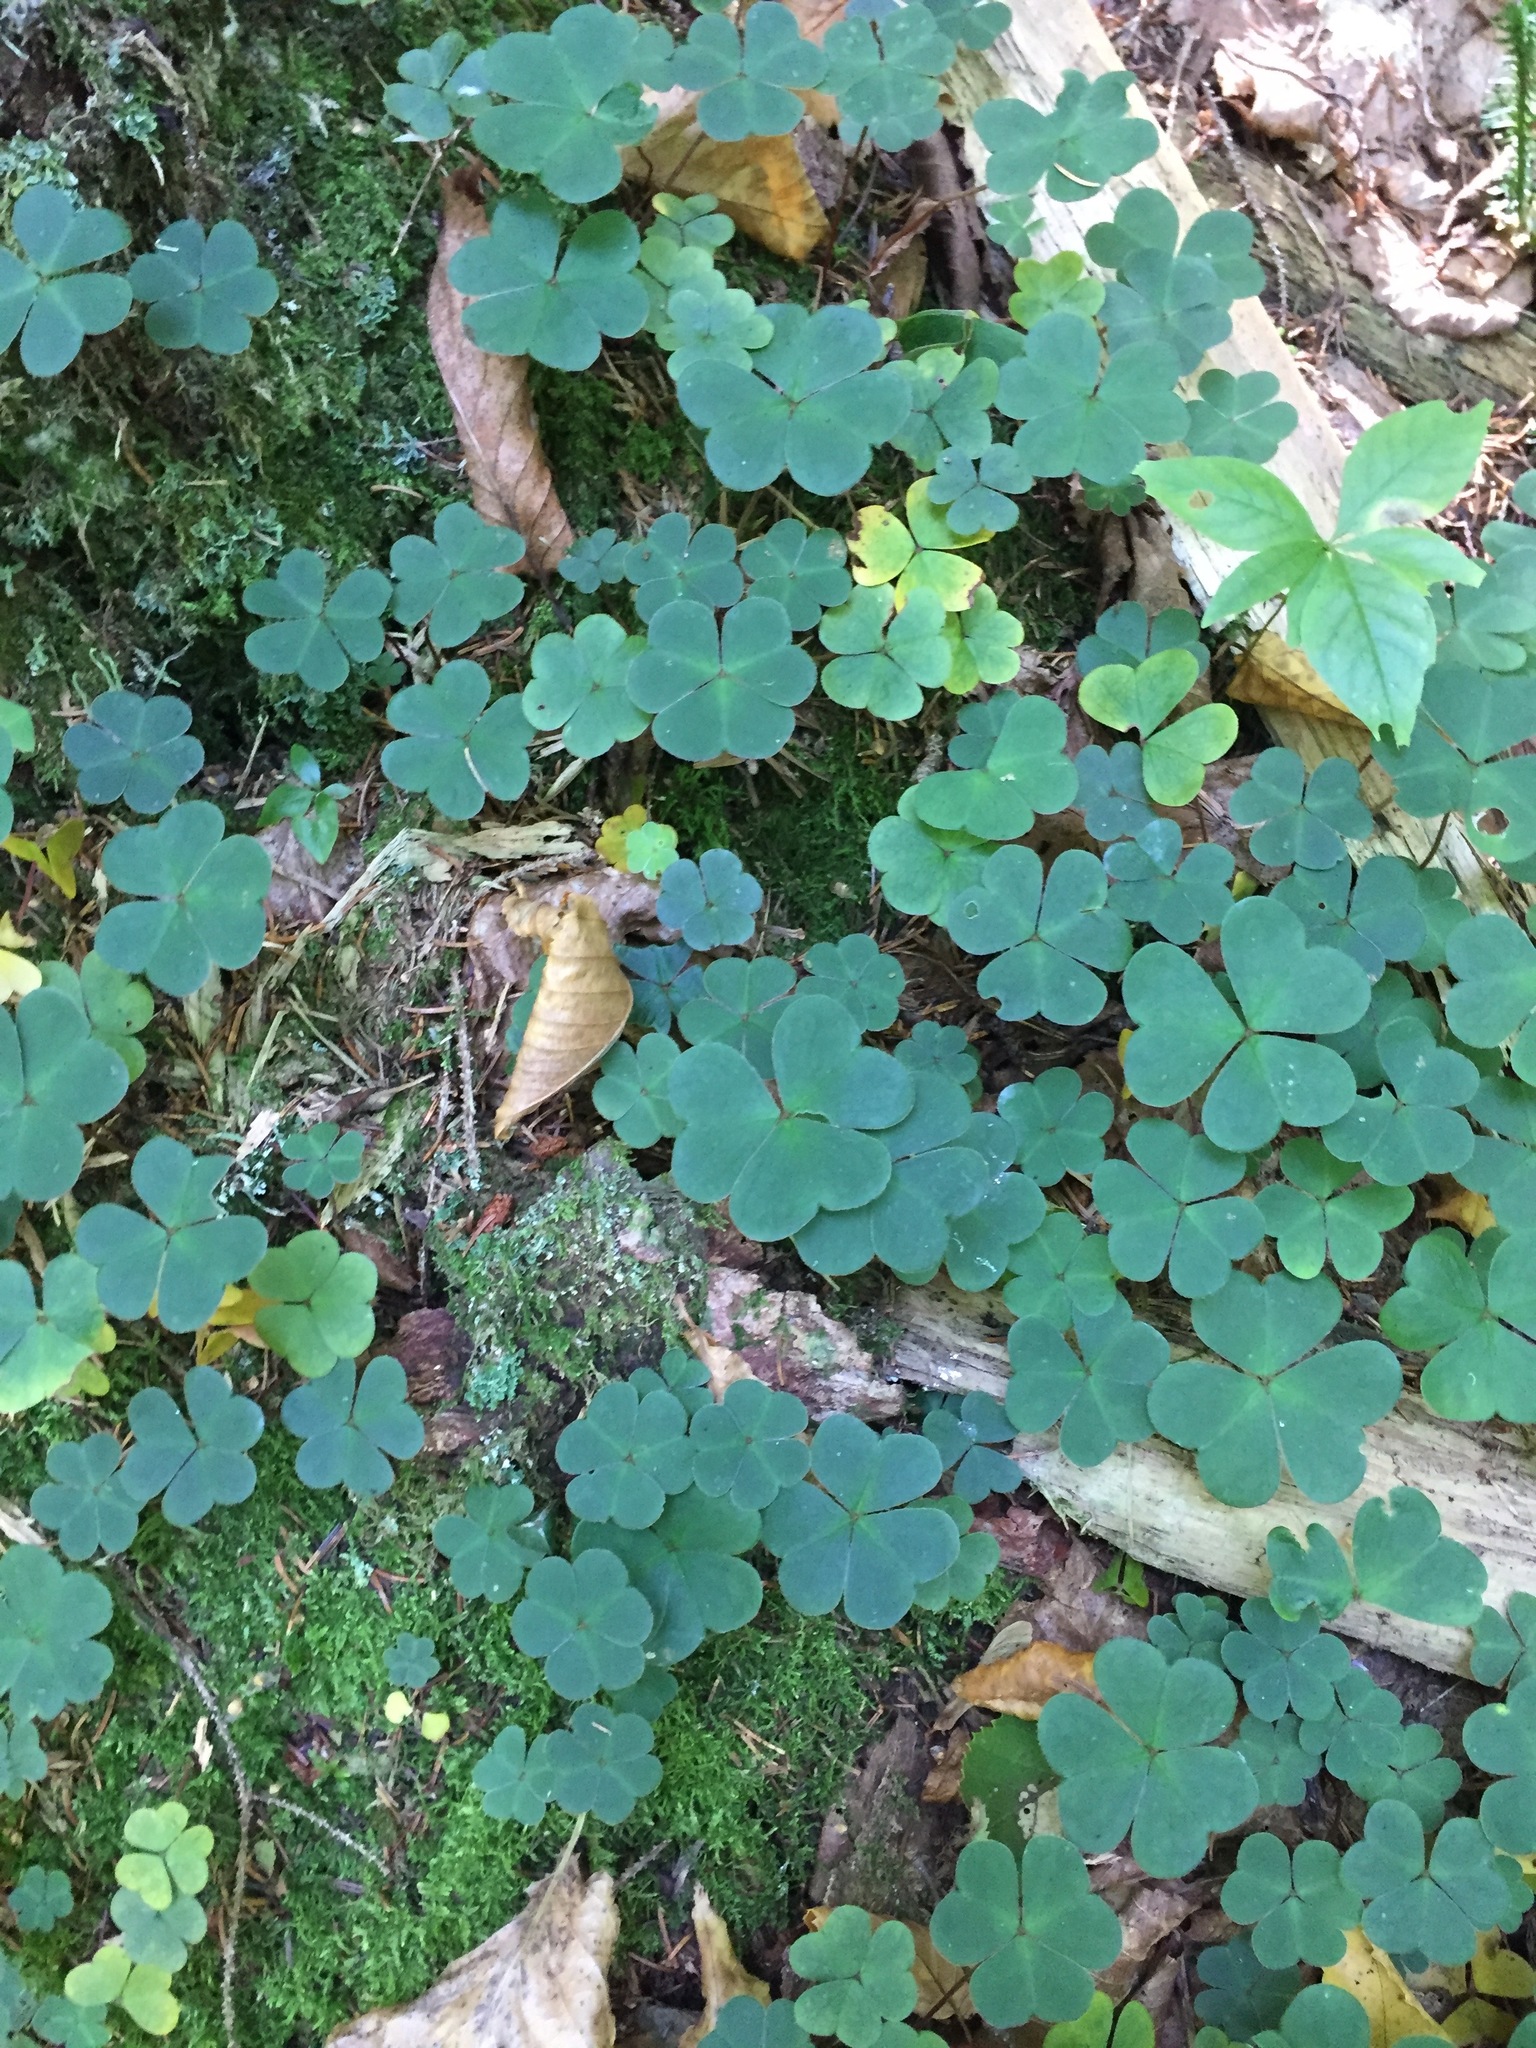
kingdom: Plantae
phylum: Tracheophyta
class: Magnoliopsida
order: Oxalidales
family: Oxalidaceae
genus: Oxalis
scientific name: Oxalis montana
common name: American wood-sorrel
